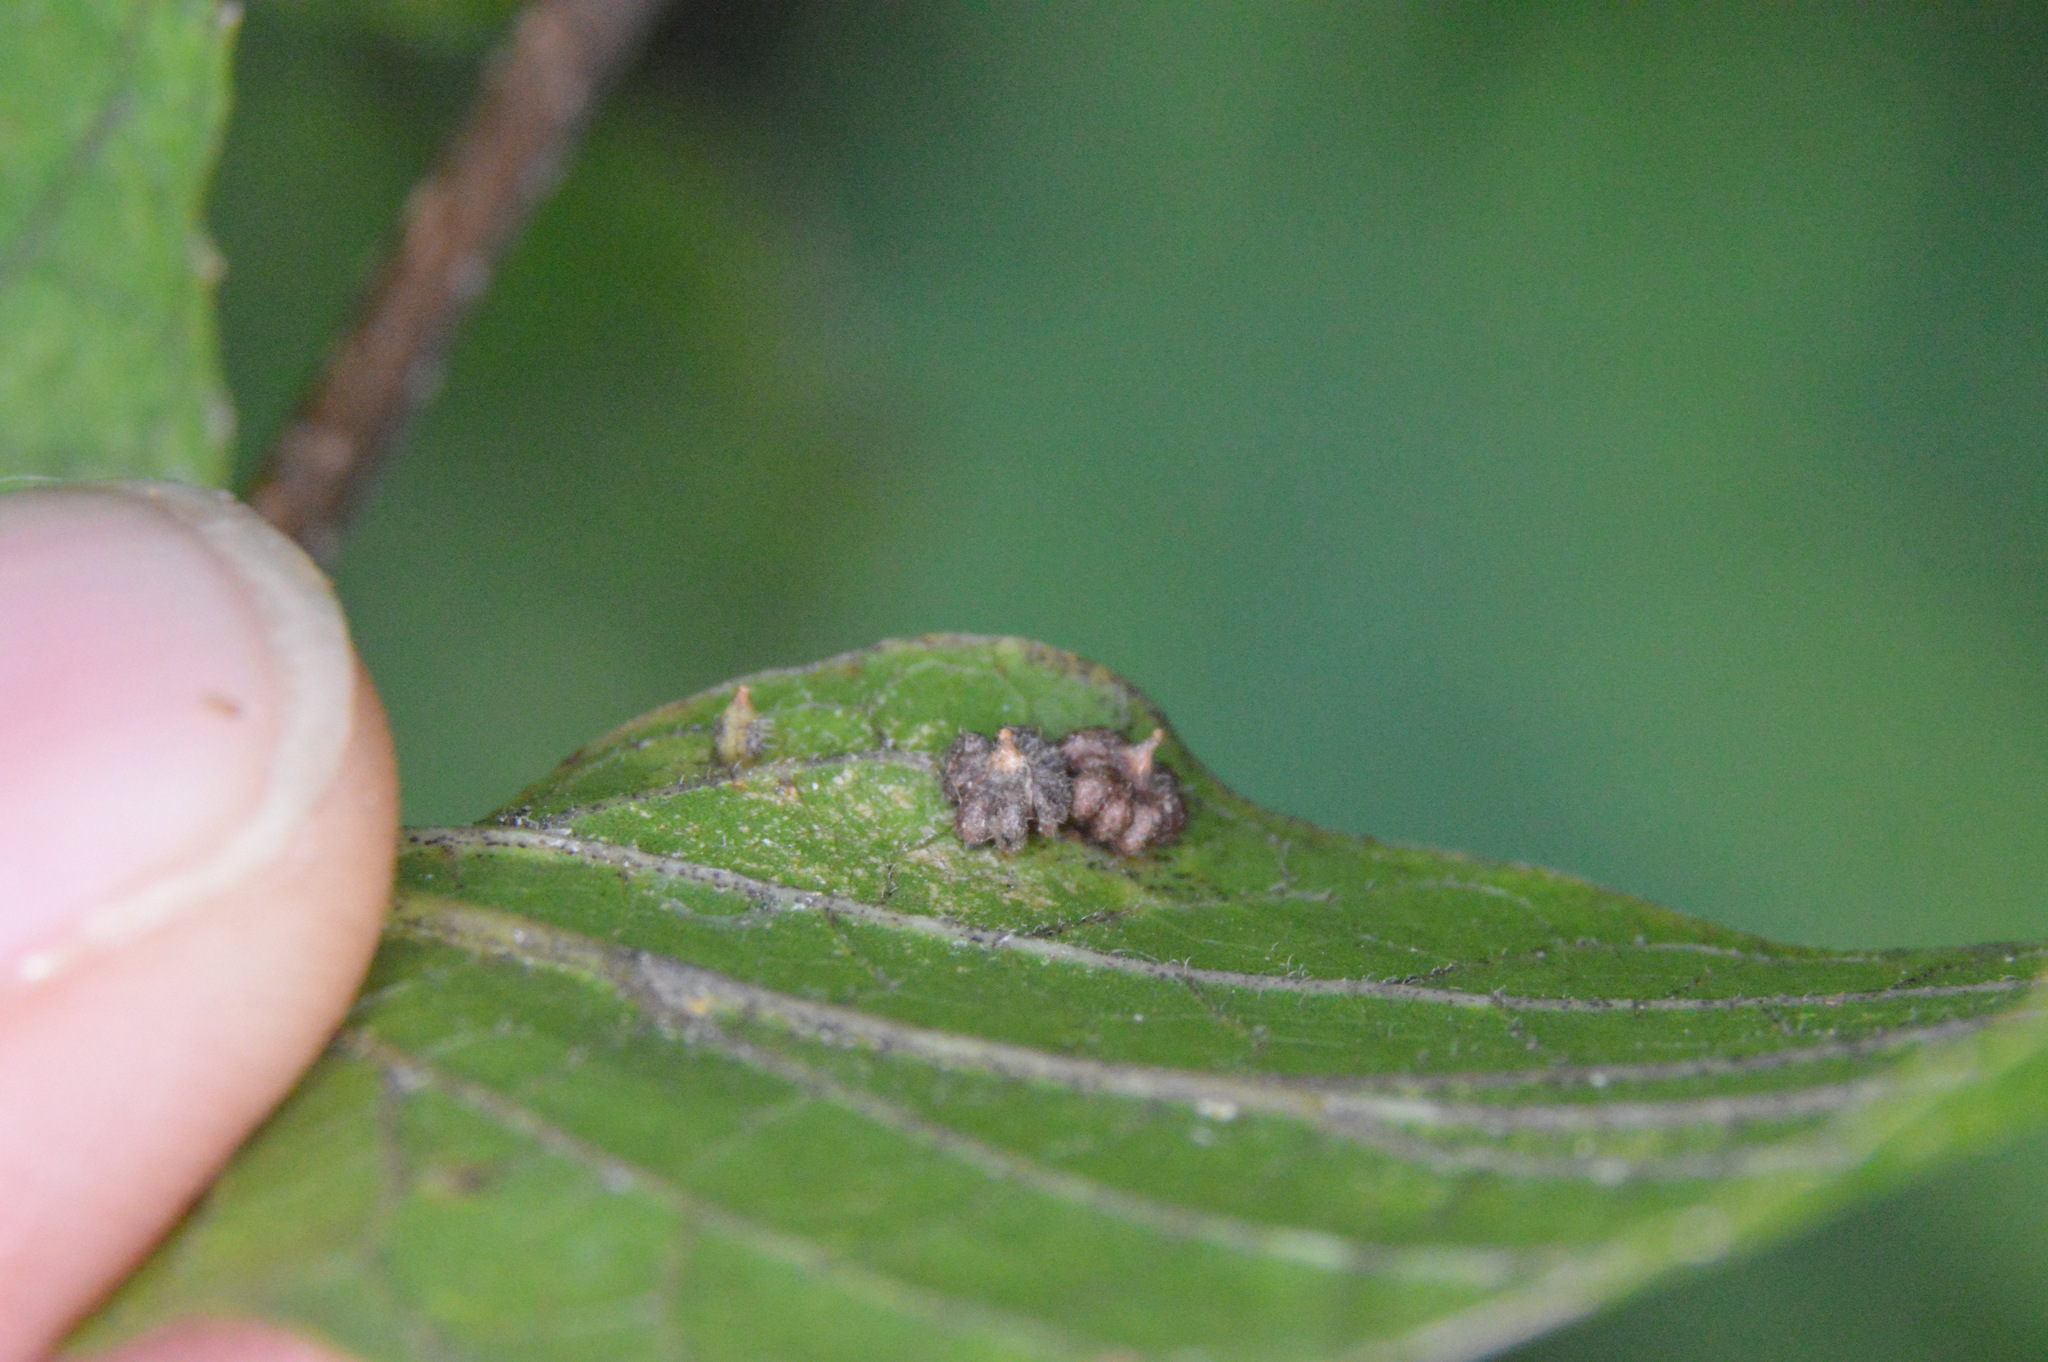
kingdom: Animalia
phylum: Arthropoda
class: Insecta
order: Diptera
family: Cecidomyiidae
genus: Celticecis
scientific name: Celticecis capsularis
